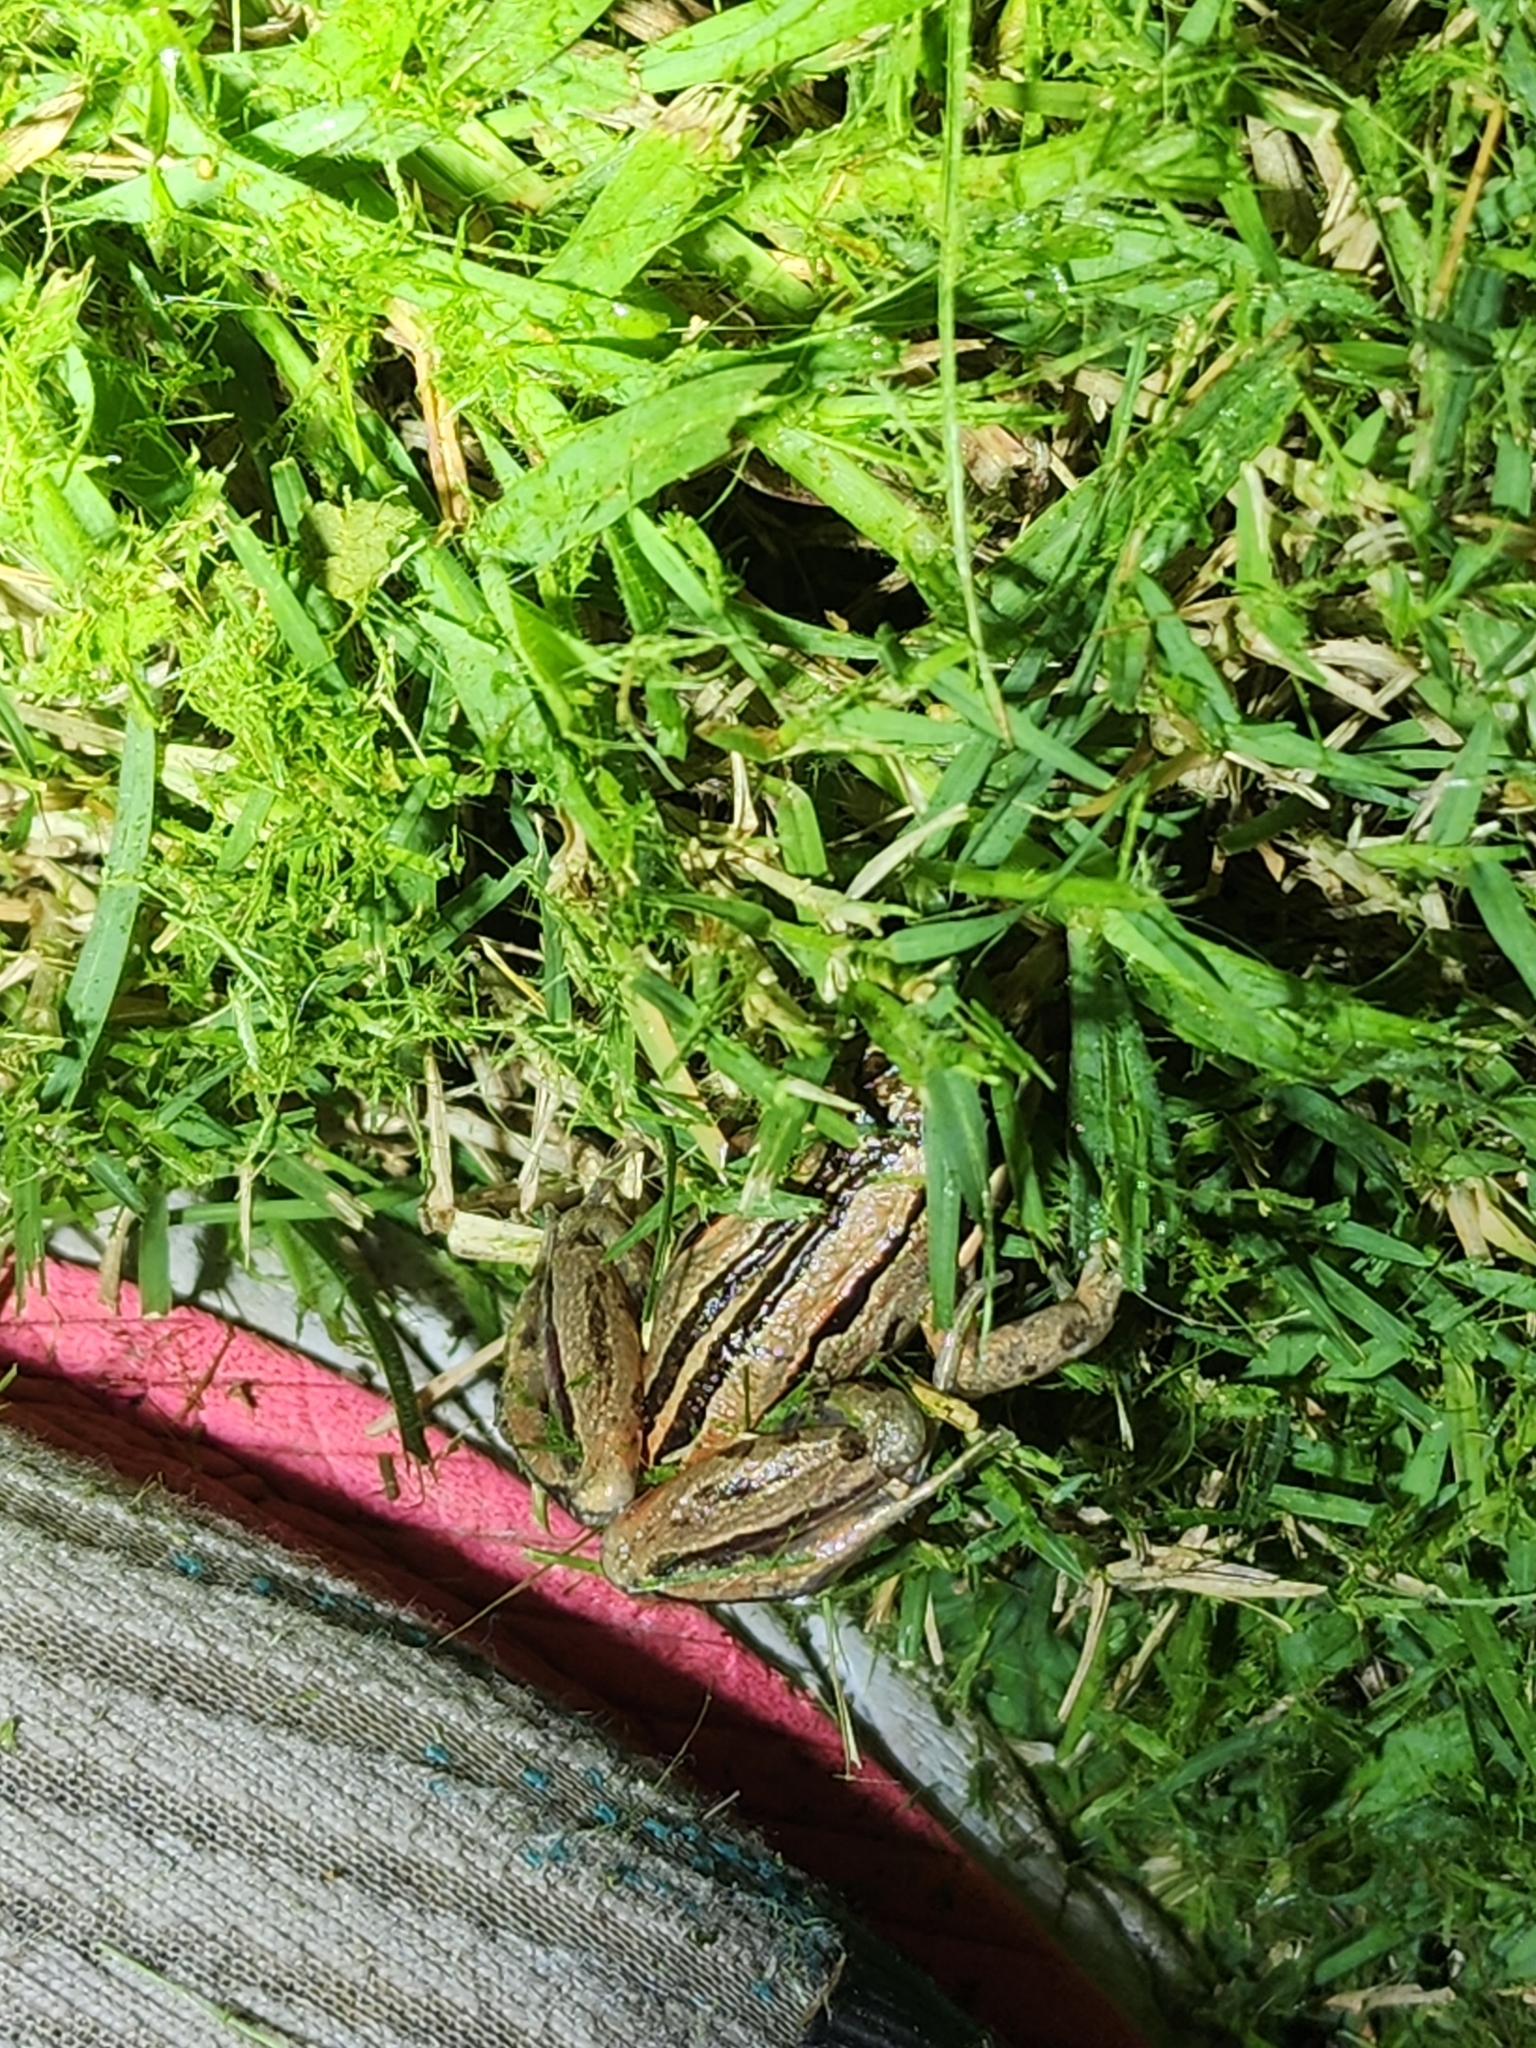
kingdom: Animalia
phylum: Chordata
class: Amphibia
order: Anura
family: Limnodynastidae
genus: Limnodynastes
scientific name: Limnodynastes peronii
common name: Brown frog
